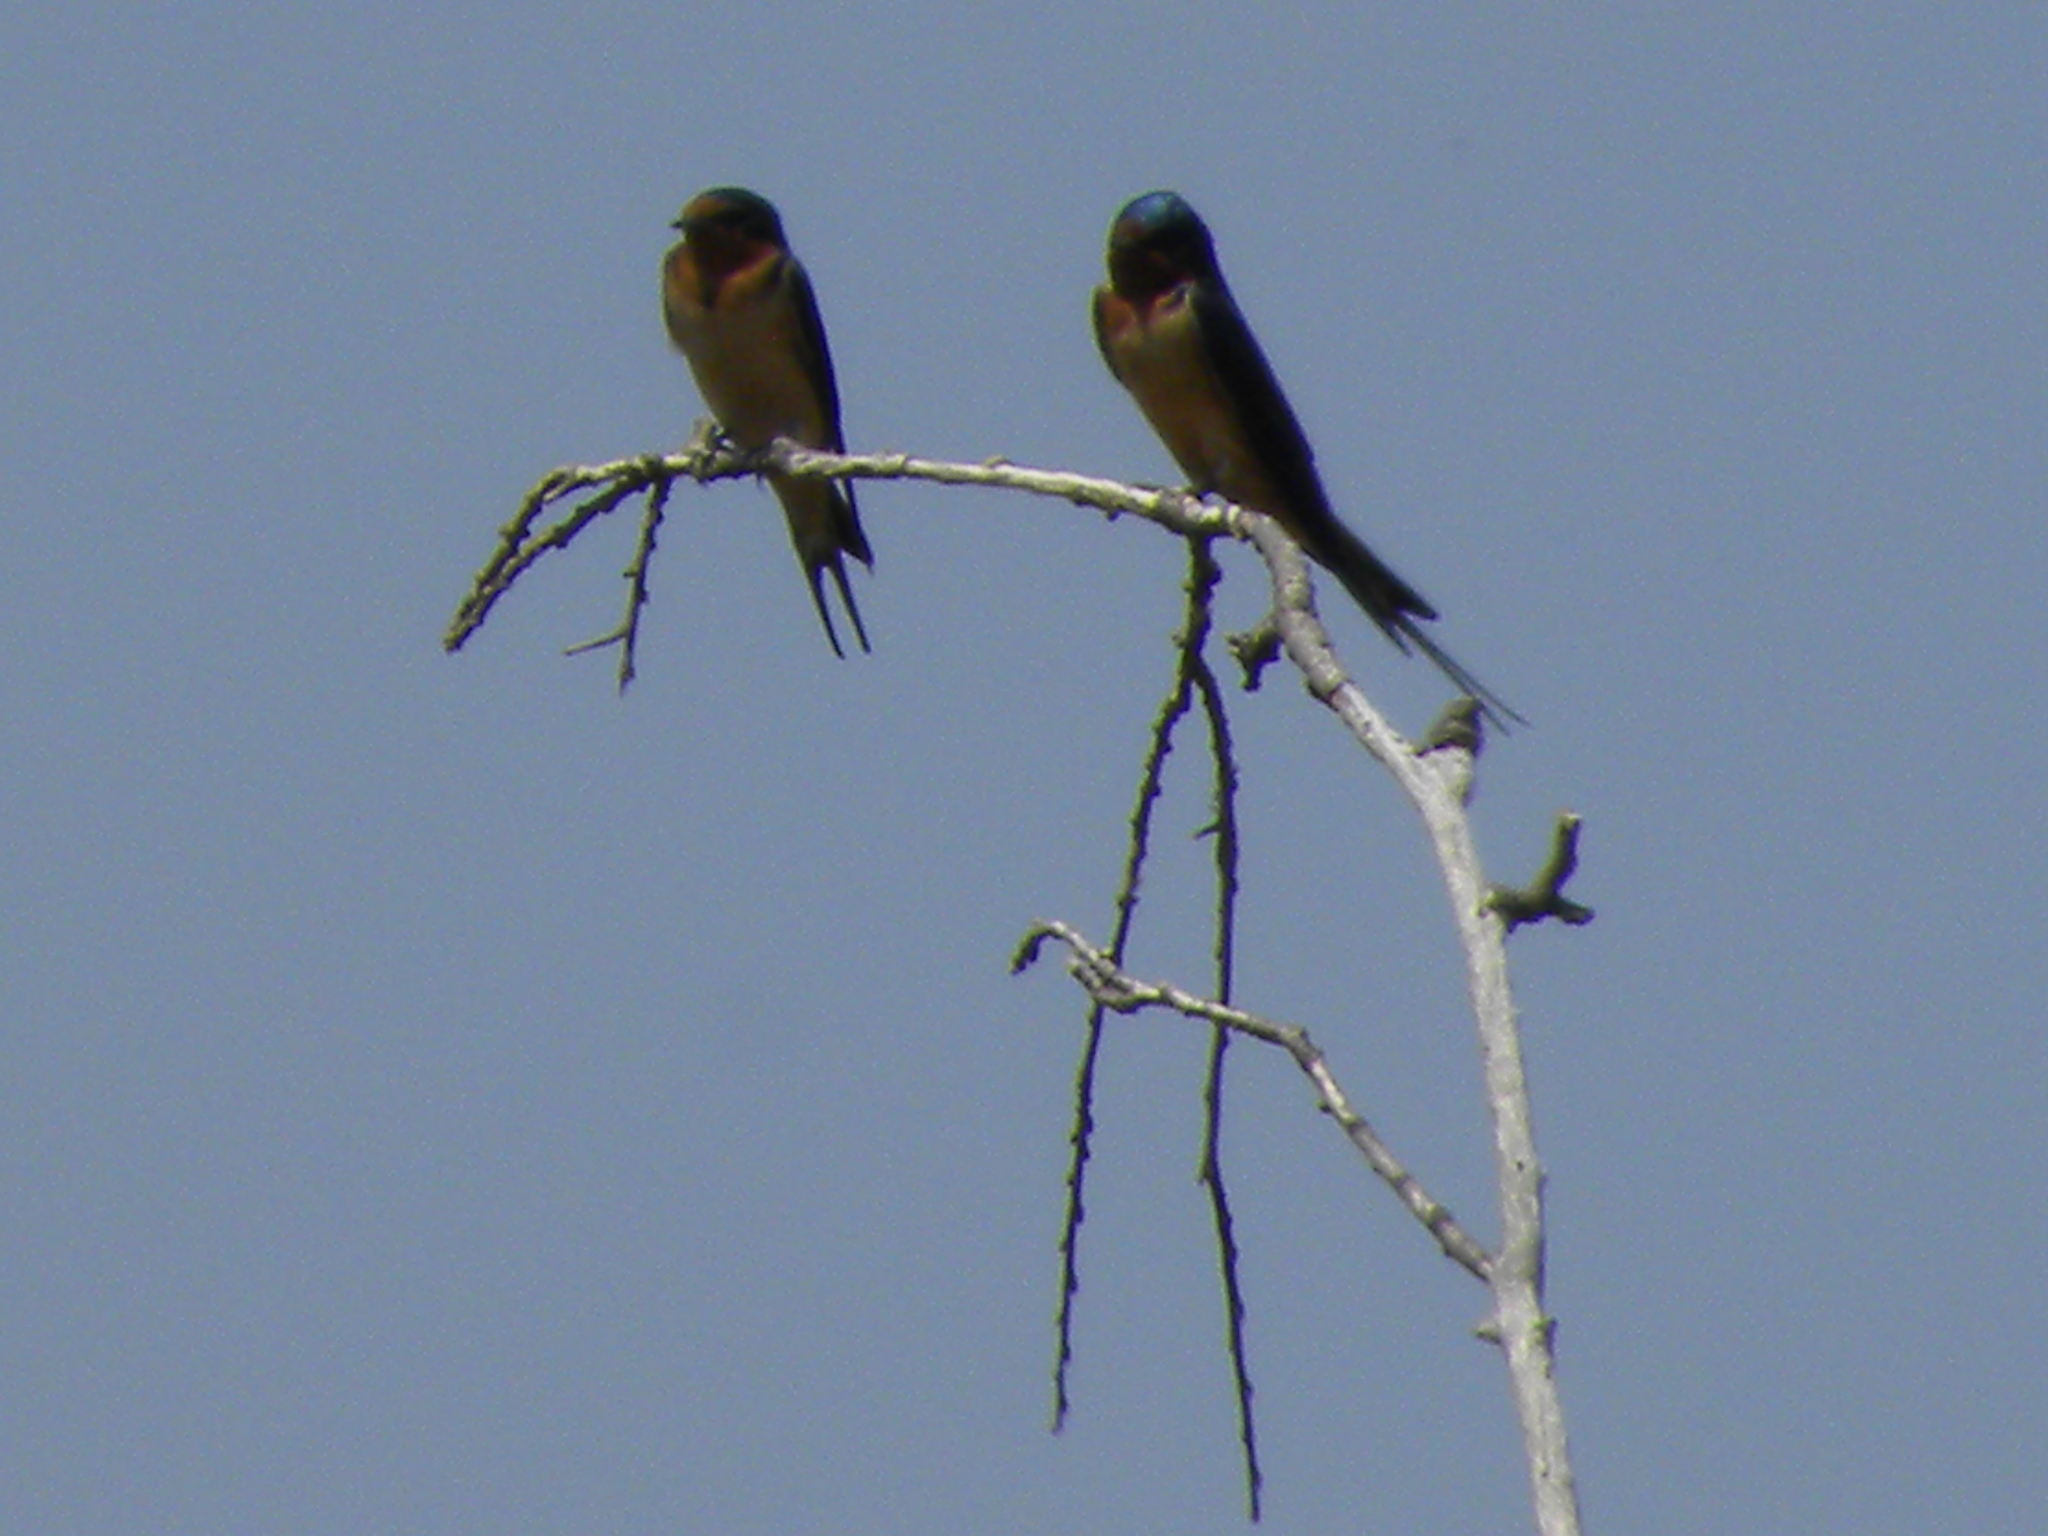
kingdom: Animalia
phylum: Chordata
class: Aves
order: Passeriformes
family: Hirundinidae
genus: Hirundo
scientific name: Hirundo rustica
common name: Barn swallow
